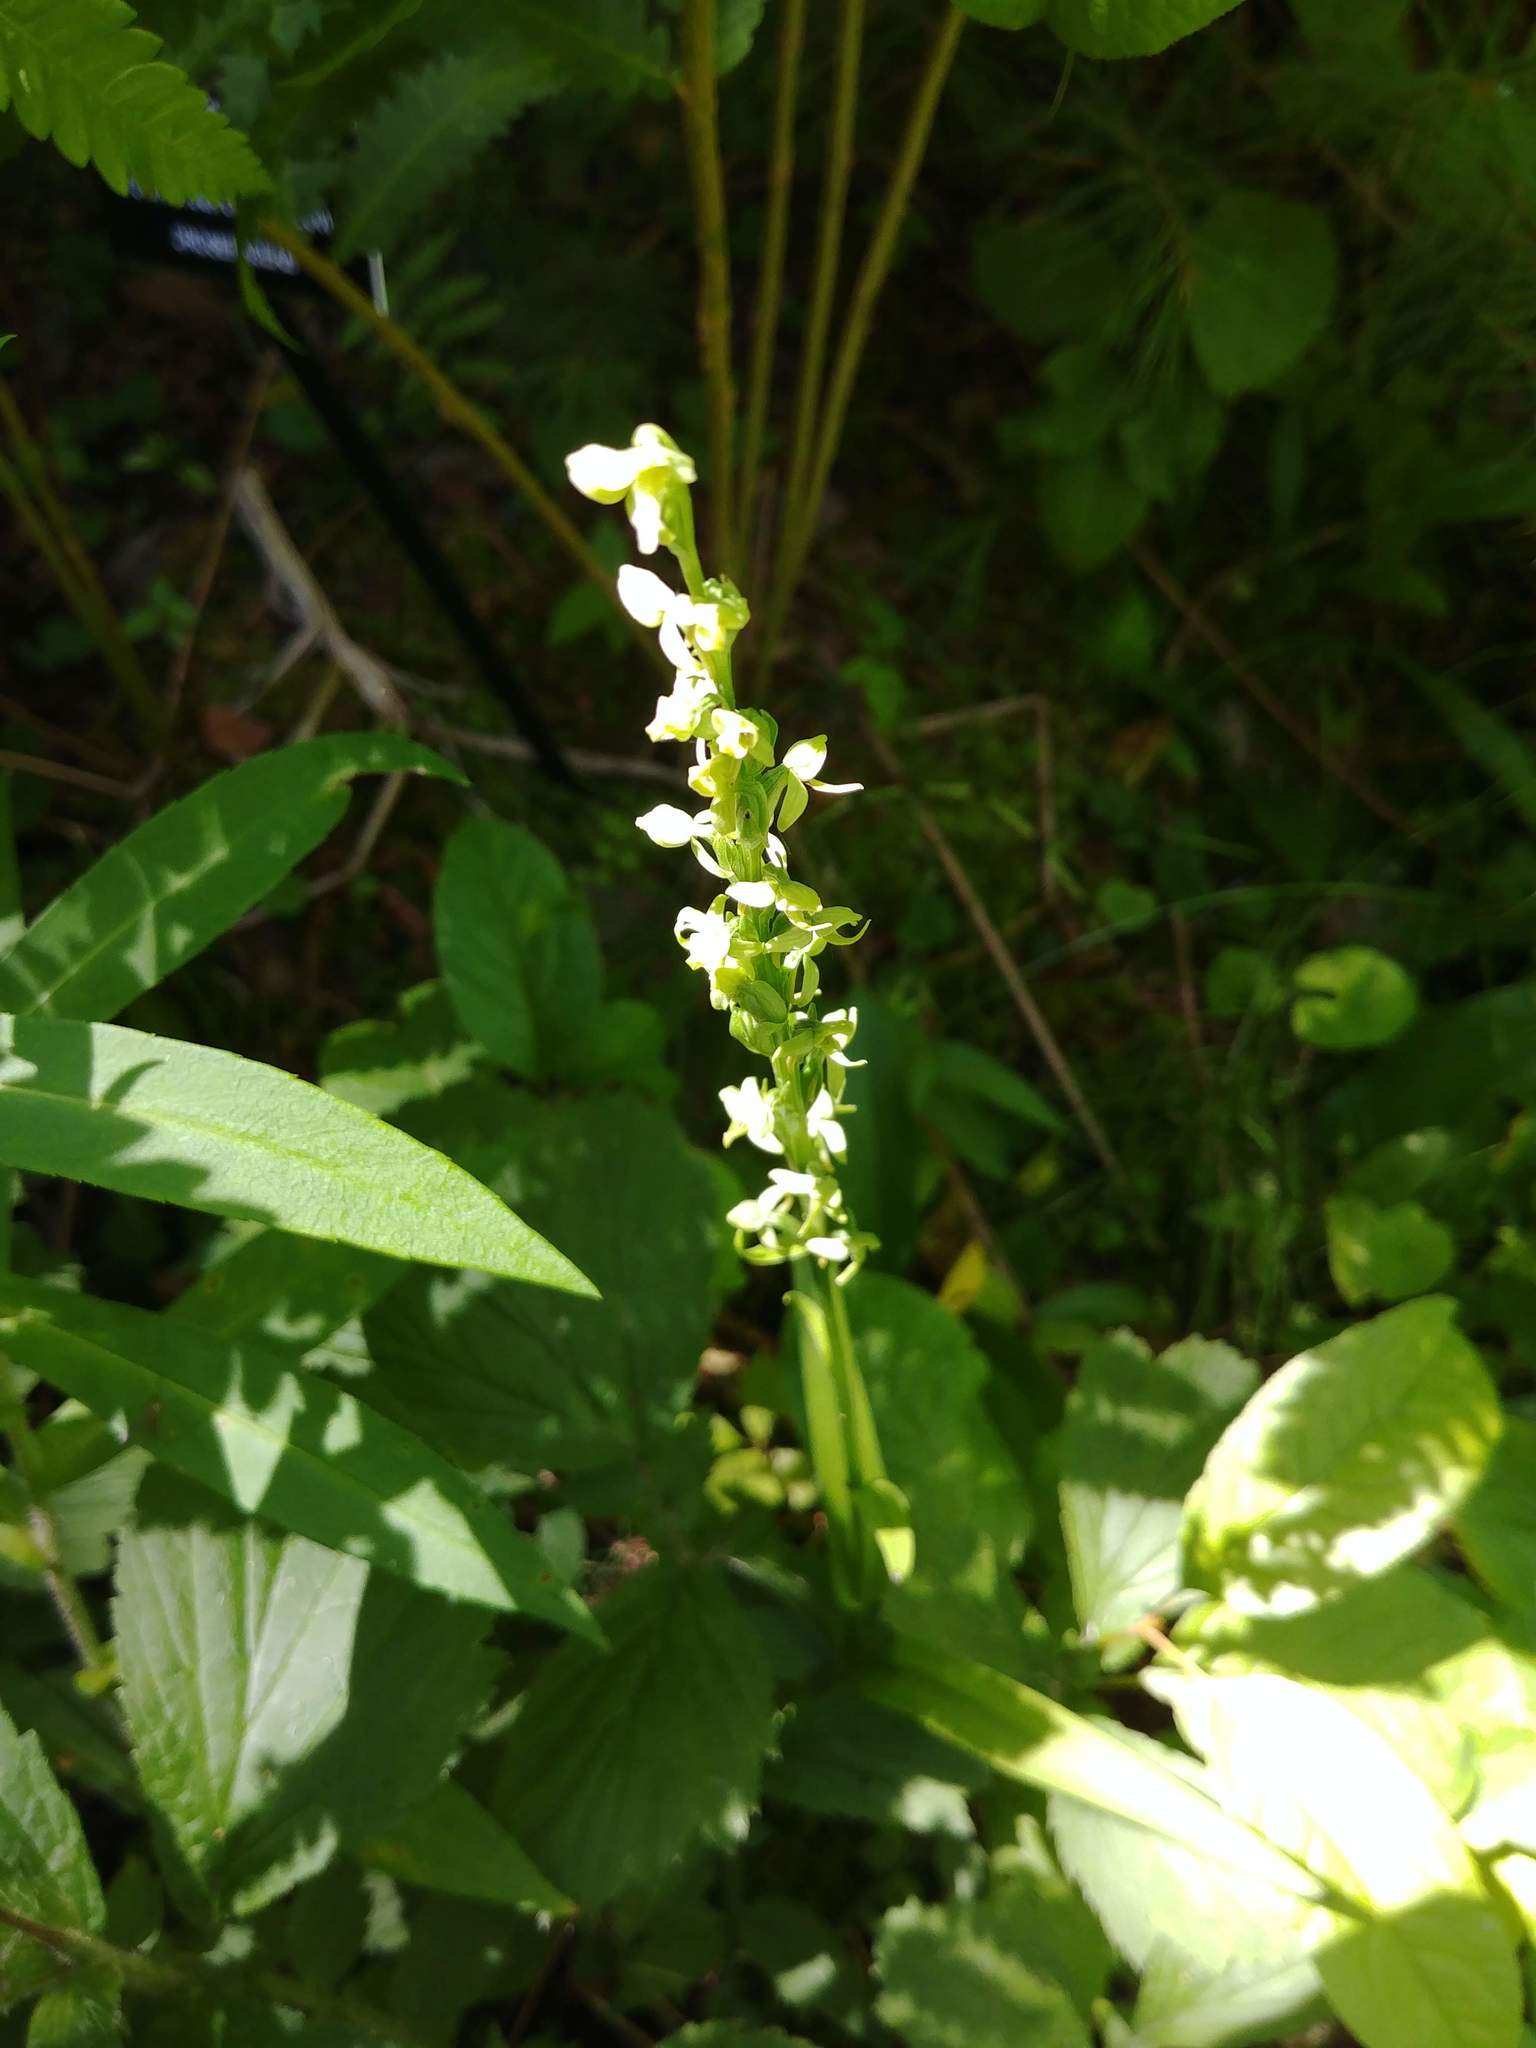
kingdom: Plantae
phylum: Tracheophyta
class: Liliopsida
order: Asparagales
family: Orchidaceae
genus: Platanthera
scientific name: Platanthera huronensis
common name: Fragrant green orchid
